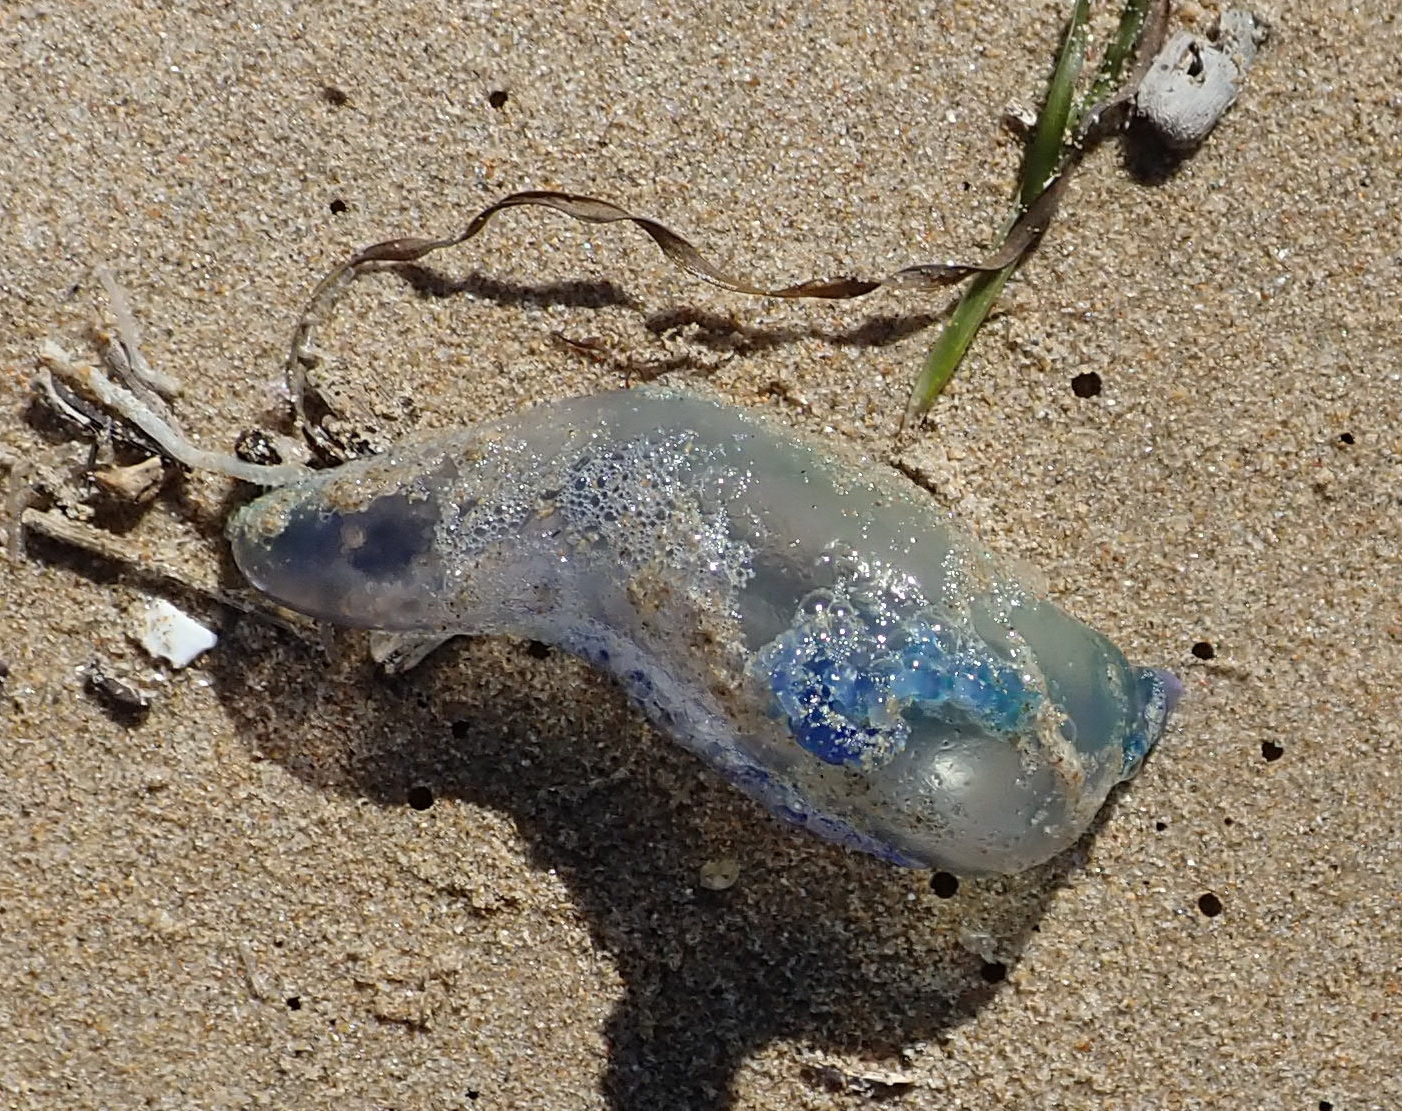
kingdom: Animalia
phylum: Cnidaria
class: Hydrozoa
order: Siphonophorae
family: Physaliidae
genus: Physalia
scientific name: Physalia physalis
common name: Portuguese man-of-war
